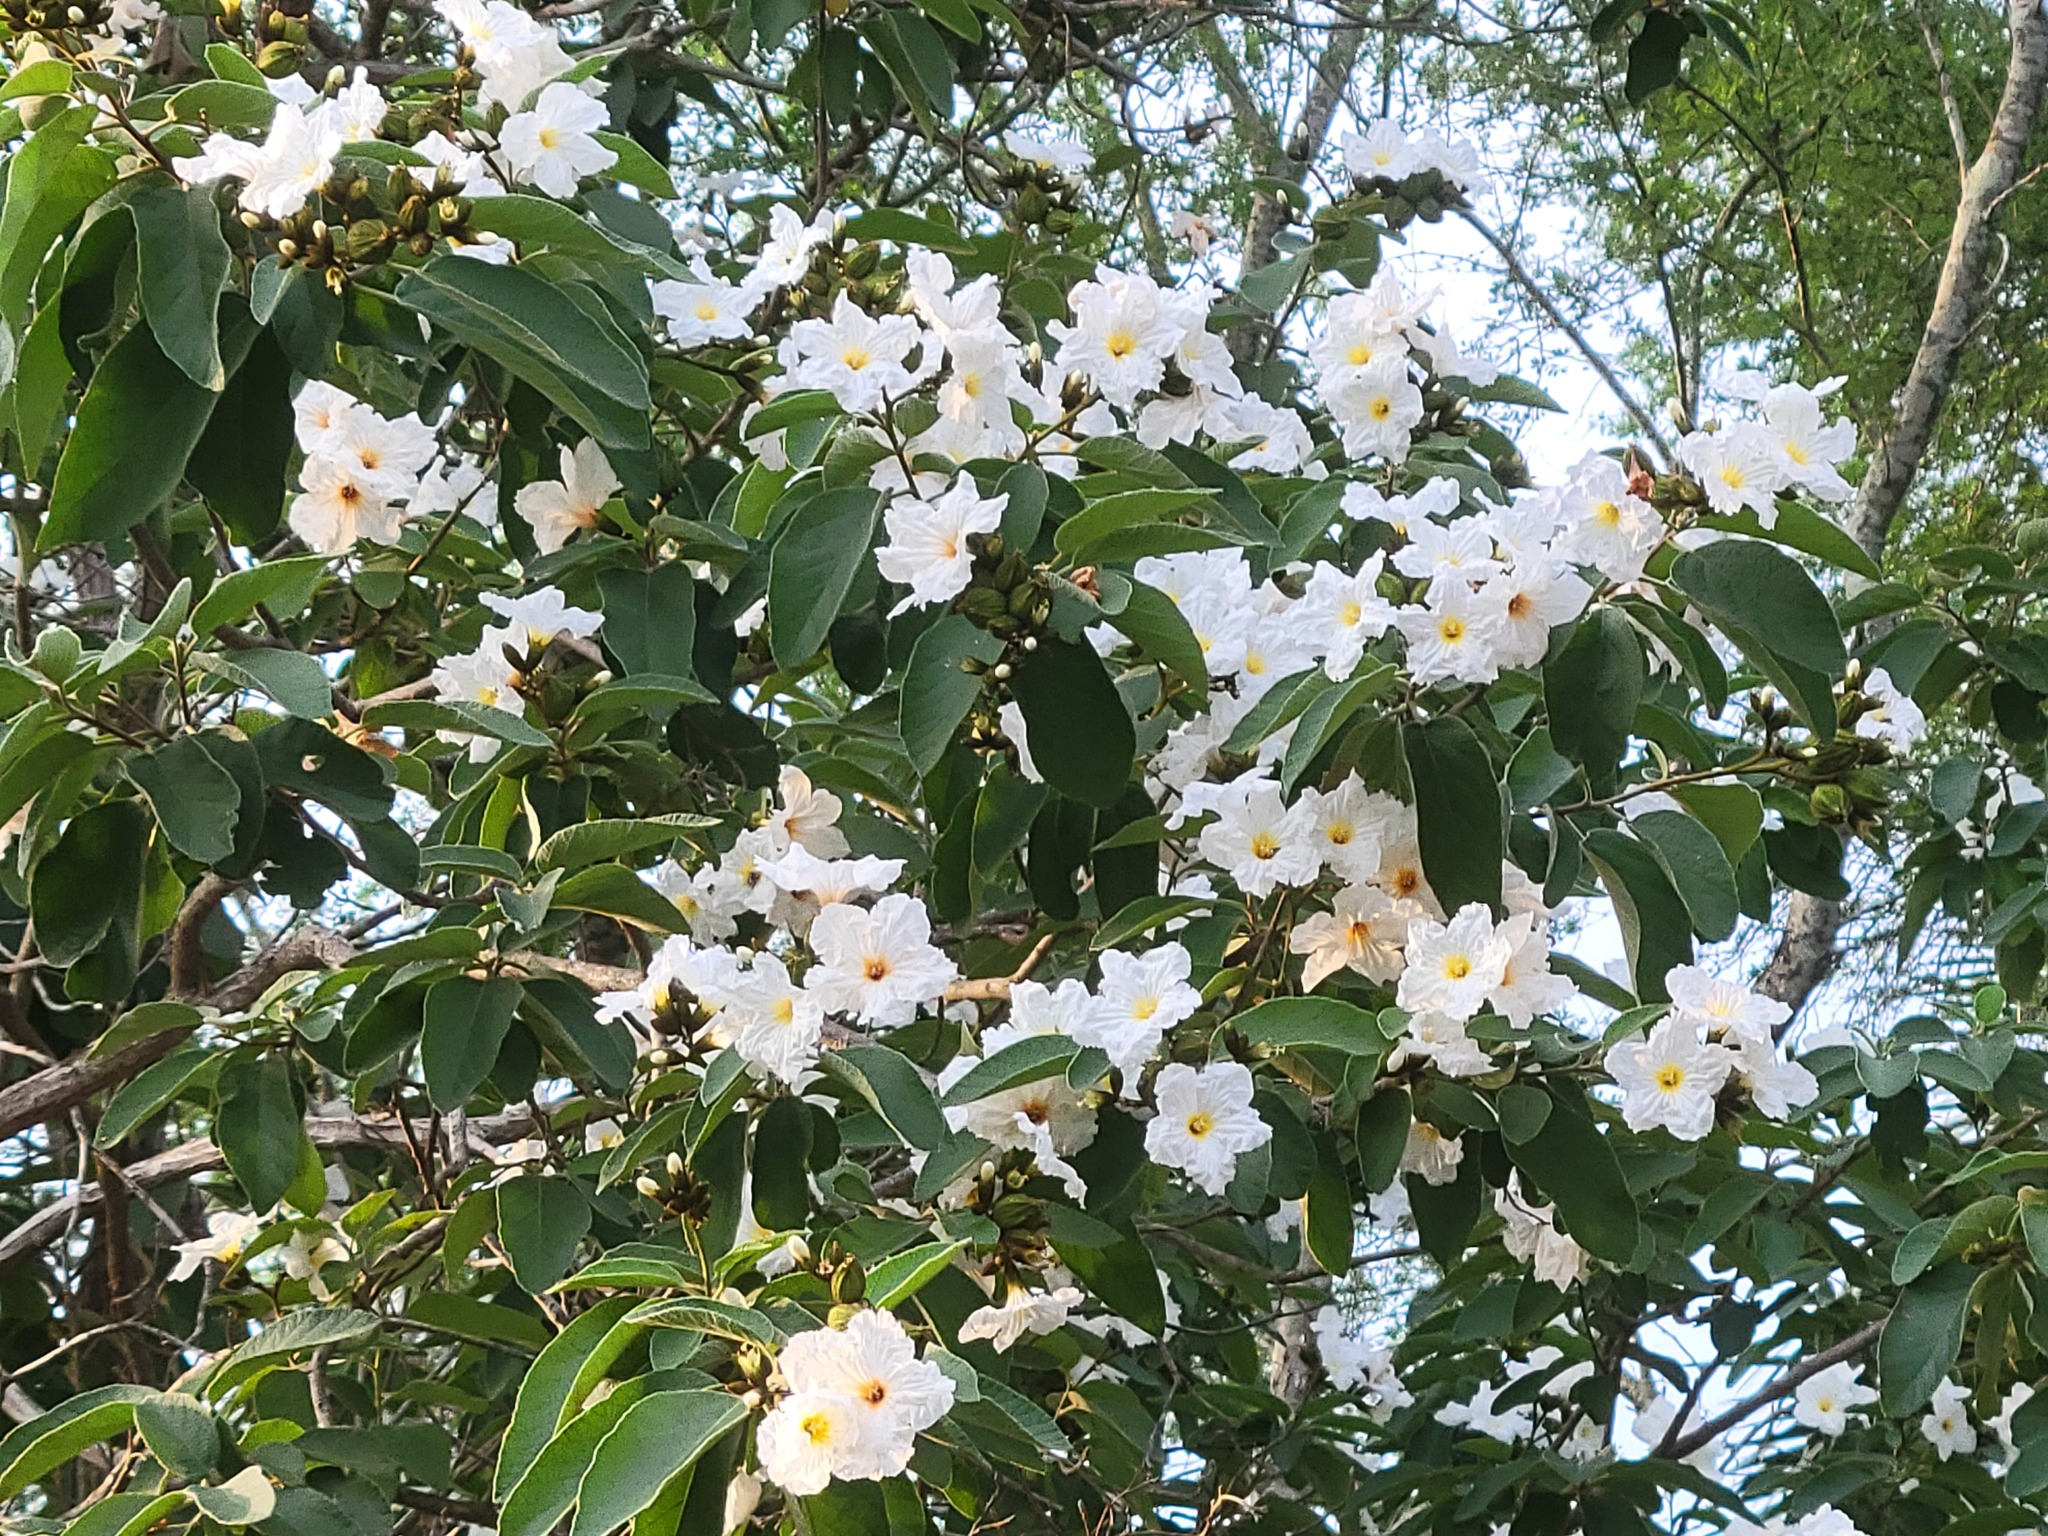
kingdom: Plantae
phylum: Tracheophyta
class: Magnoliopsida
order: Boraginales
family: Cordiaceae
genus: Cordia
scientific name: Cordia boissieri
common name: Mexican-olive
